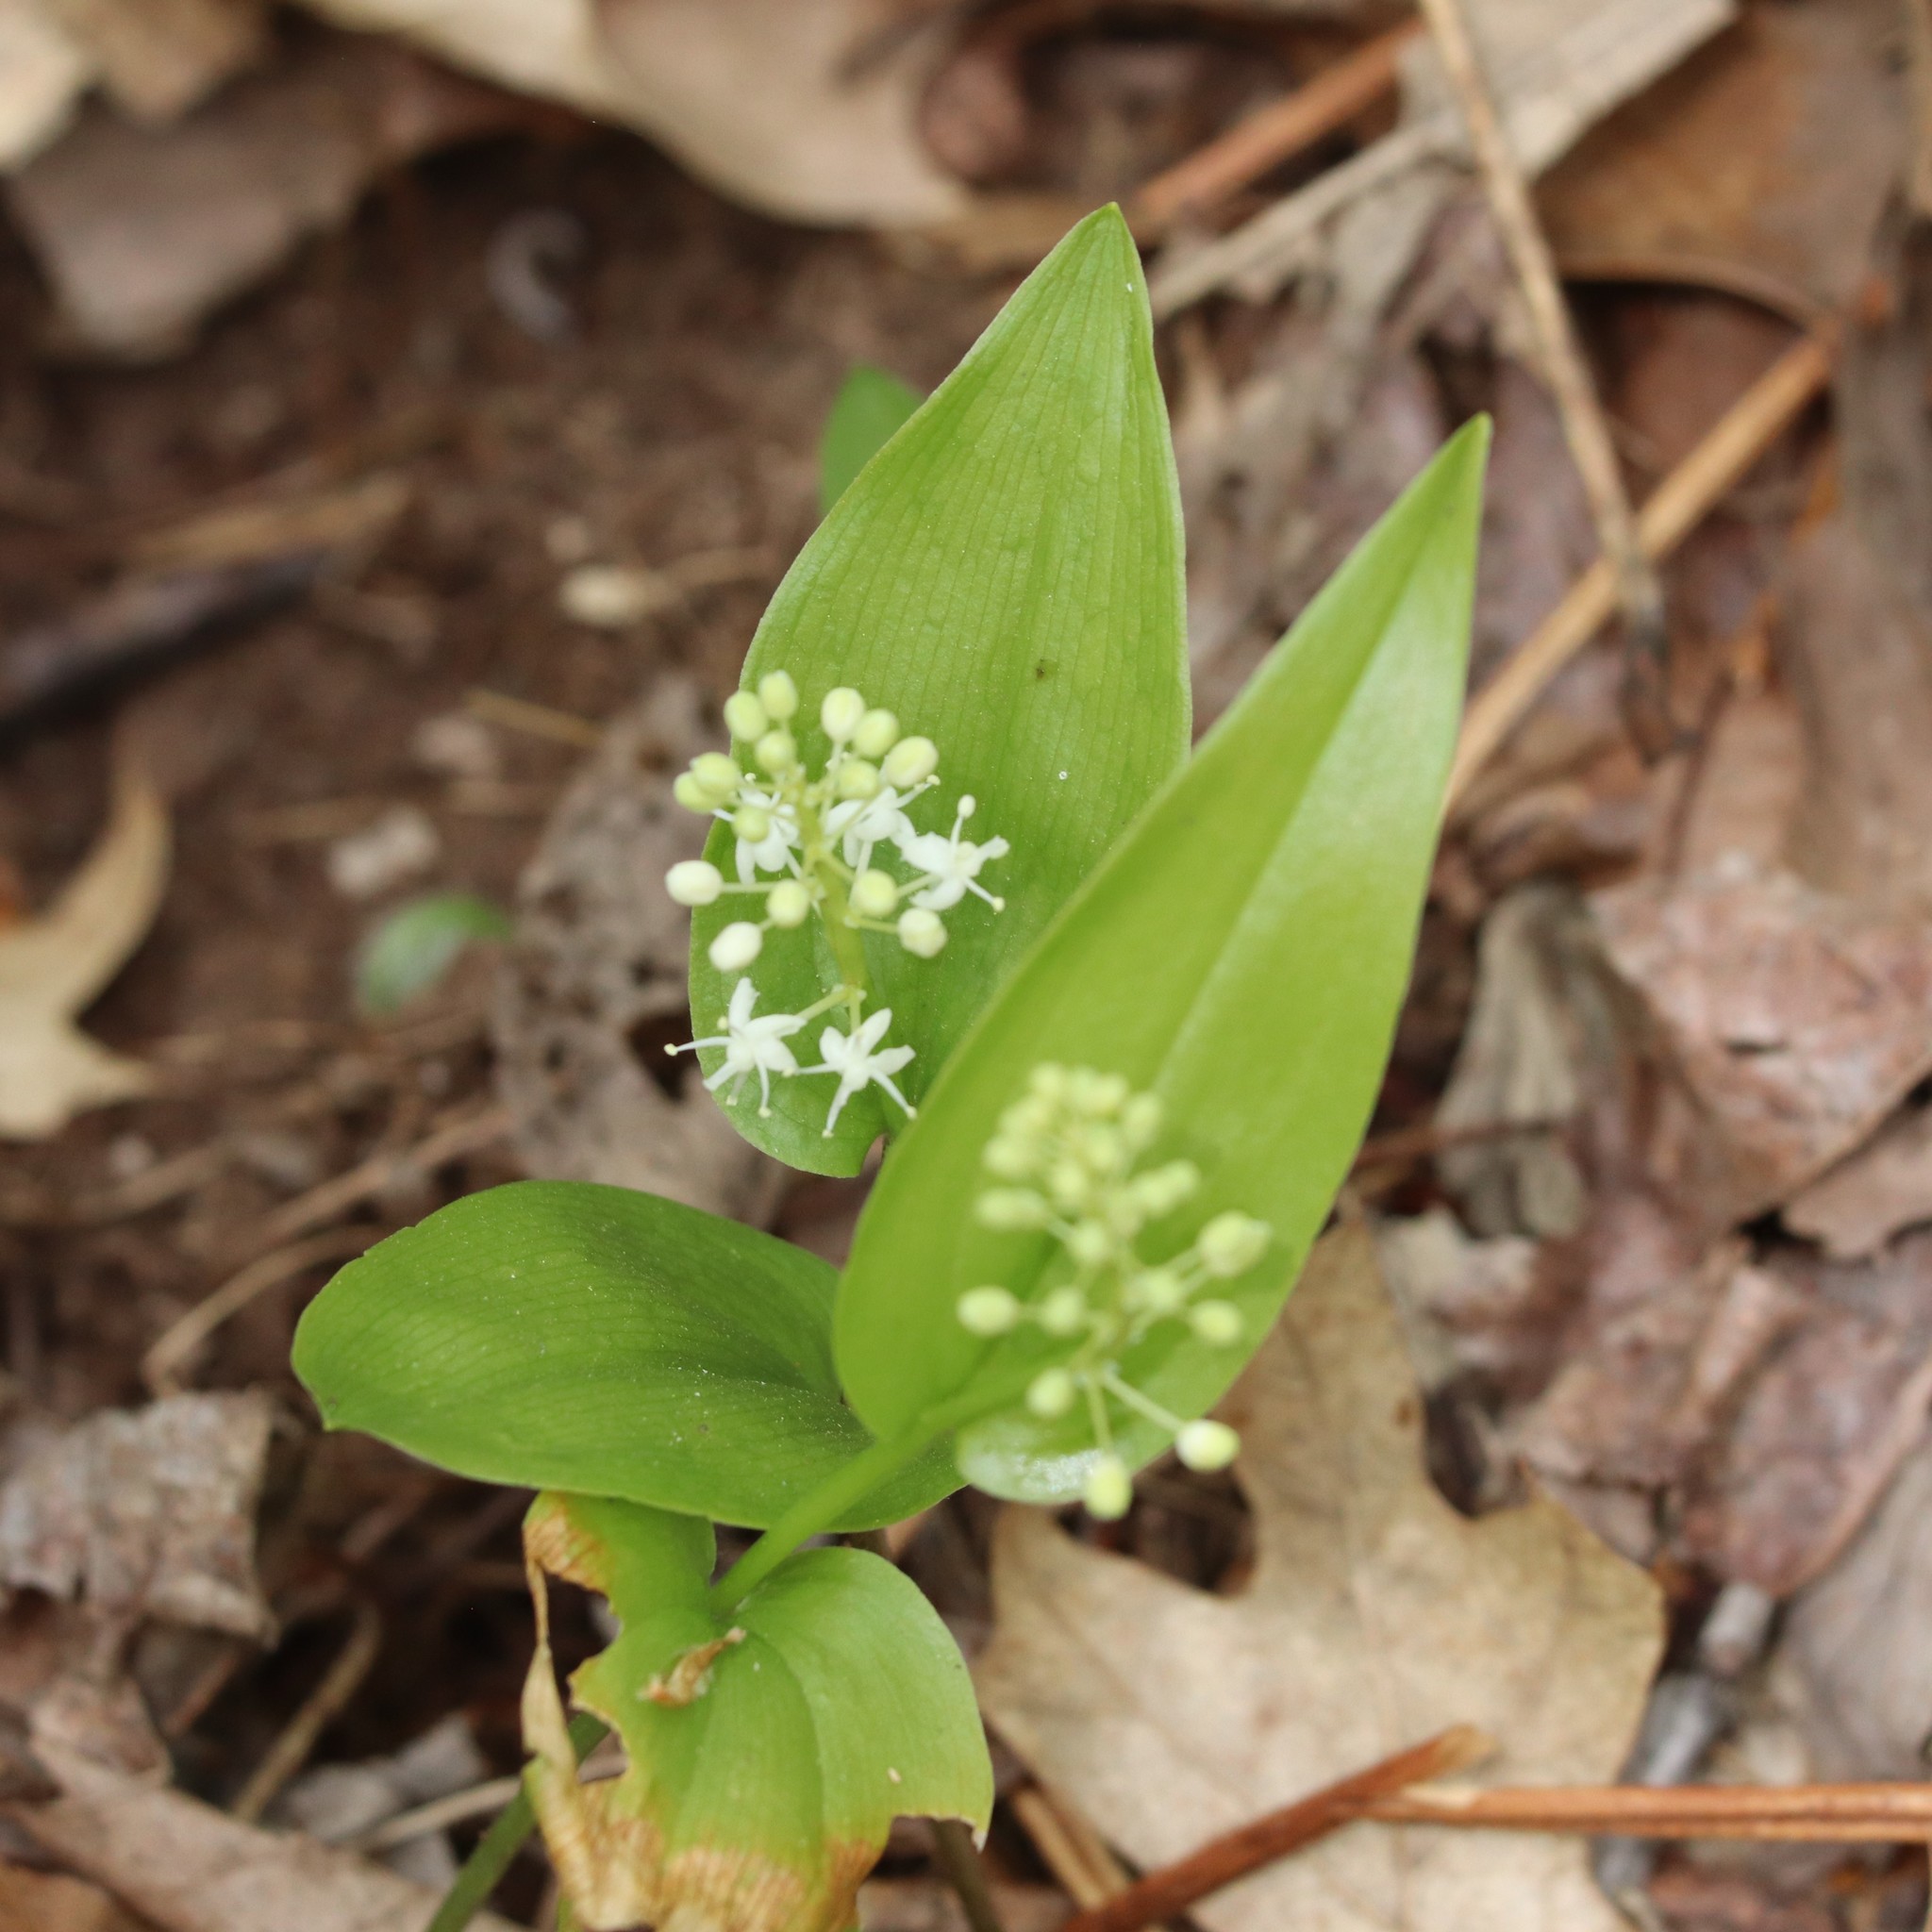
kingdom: Plantae
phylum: Tracheophyta
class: Liliopsida
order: Asparagales
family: Asparagaceae
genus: Maianthemum
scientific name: Maianthemum canadense
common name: False lily-of-the-valley
